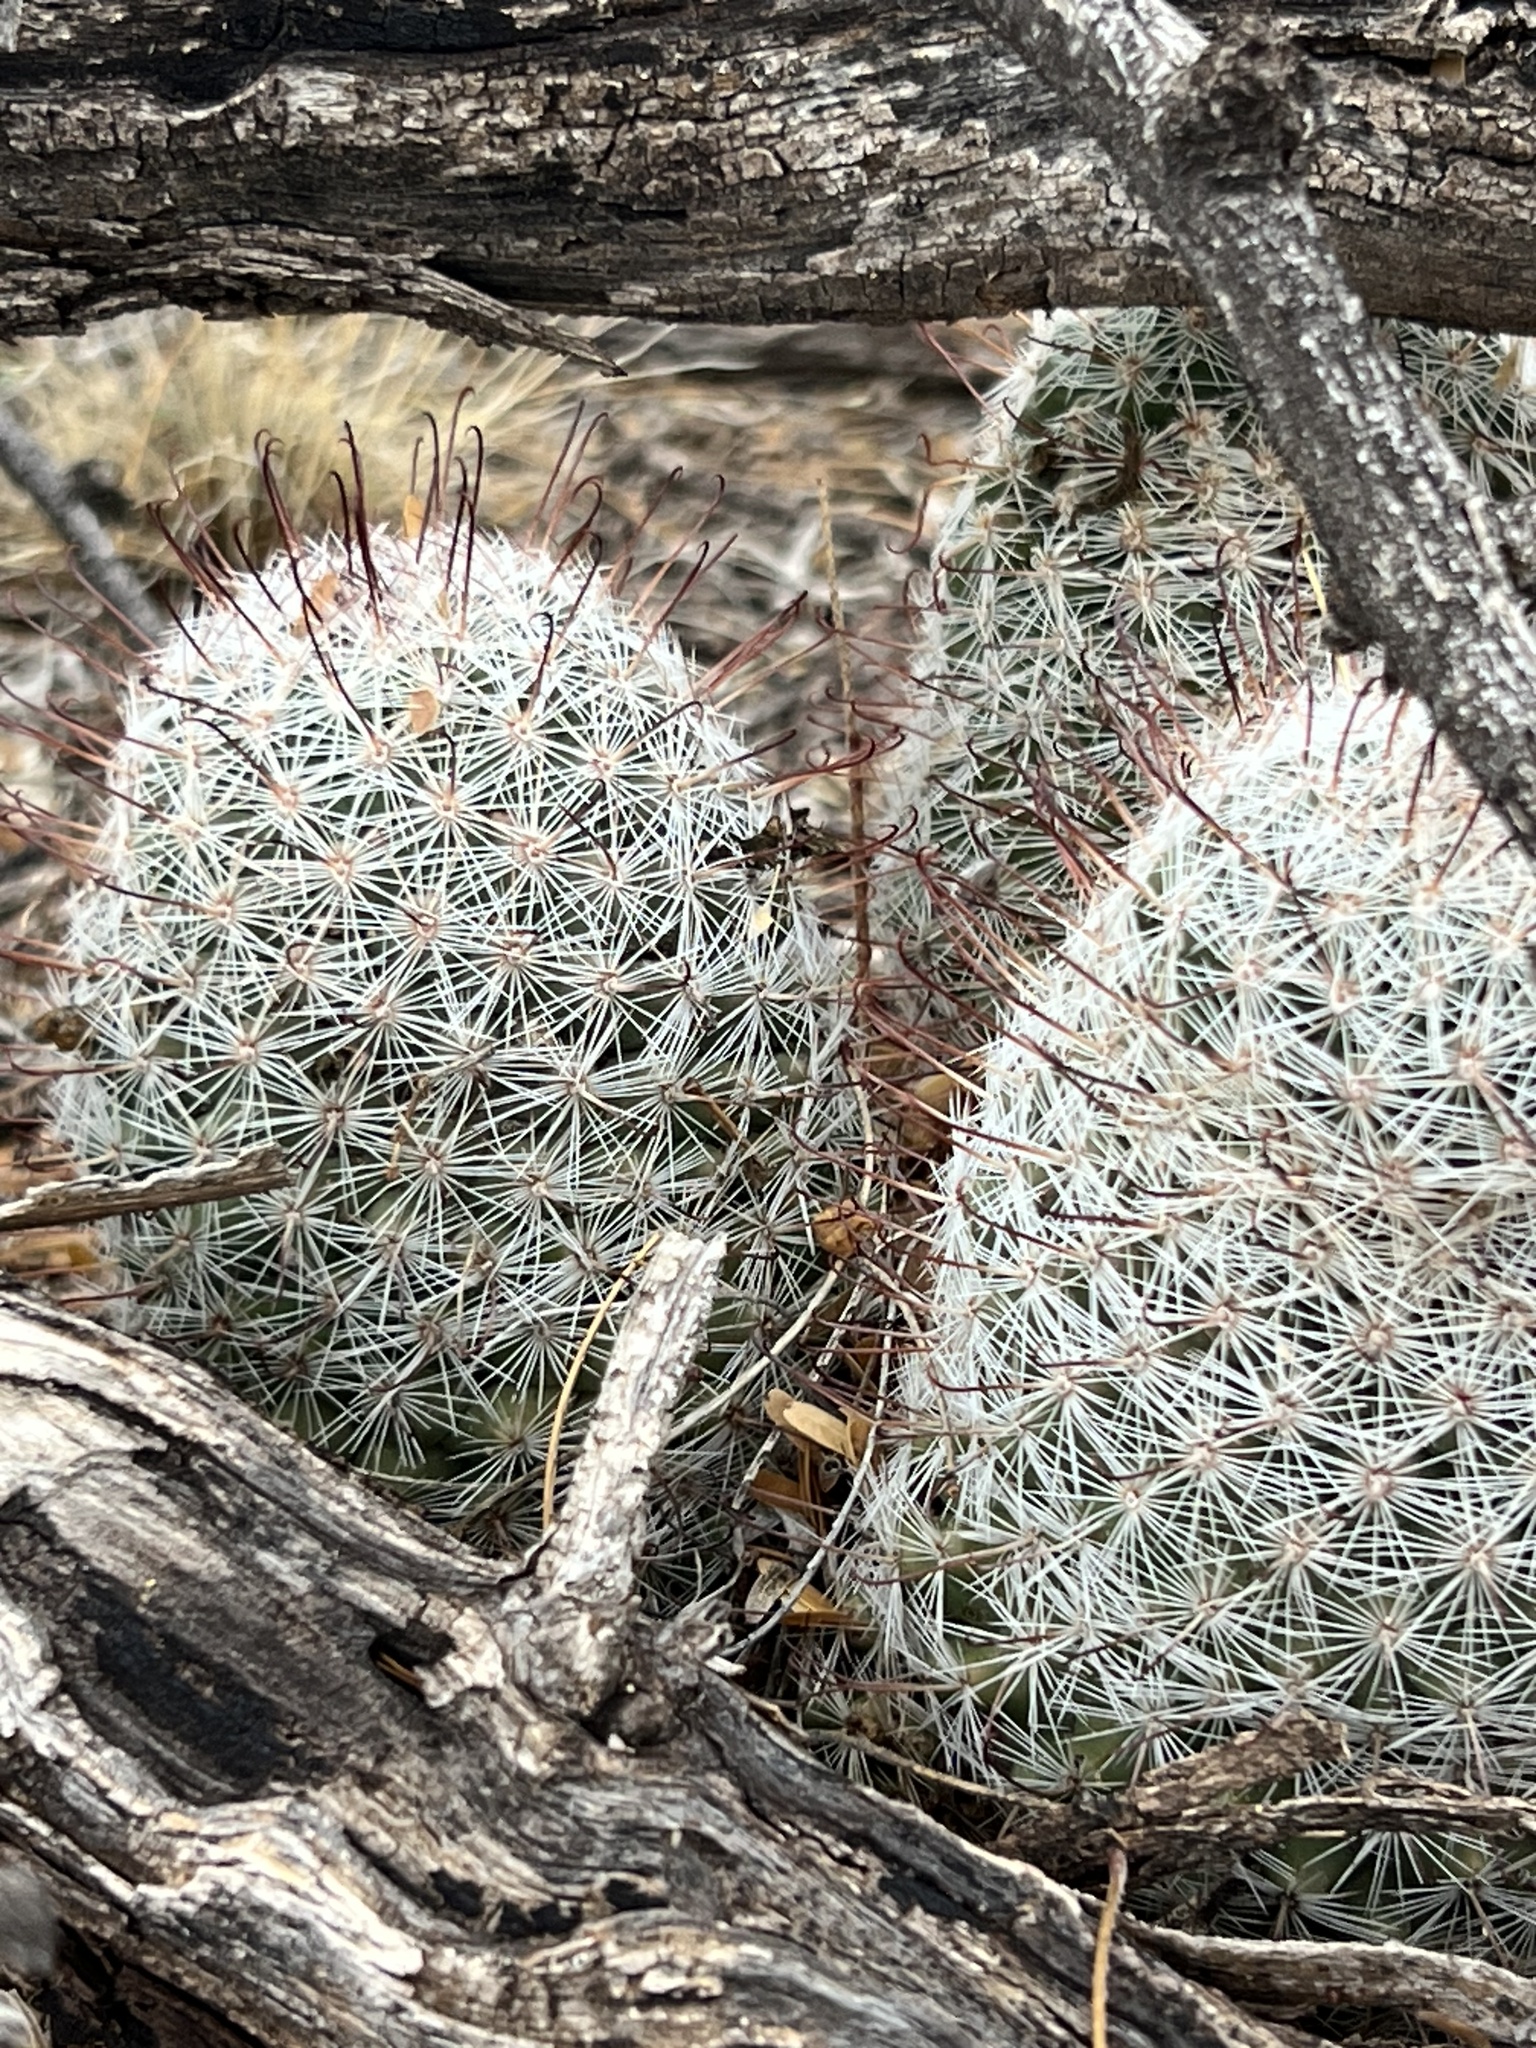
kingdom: Plantae
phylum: Tracheophyta
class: Magnoliopsida
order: Caryophyllales
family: Cactaceae
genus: Cochemiea
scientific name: Cochemiea grahamii
